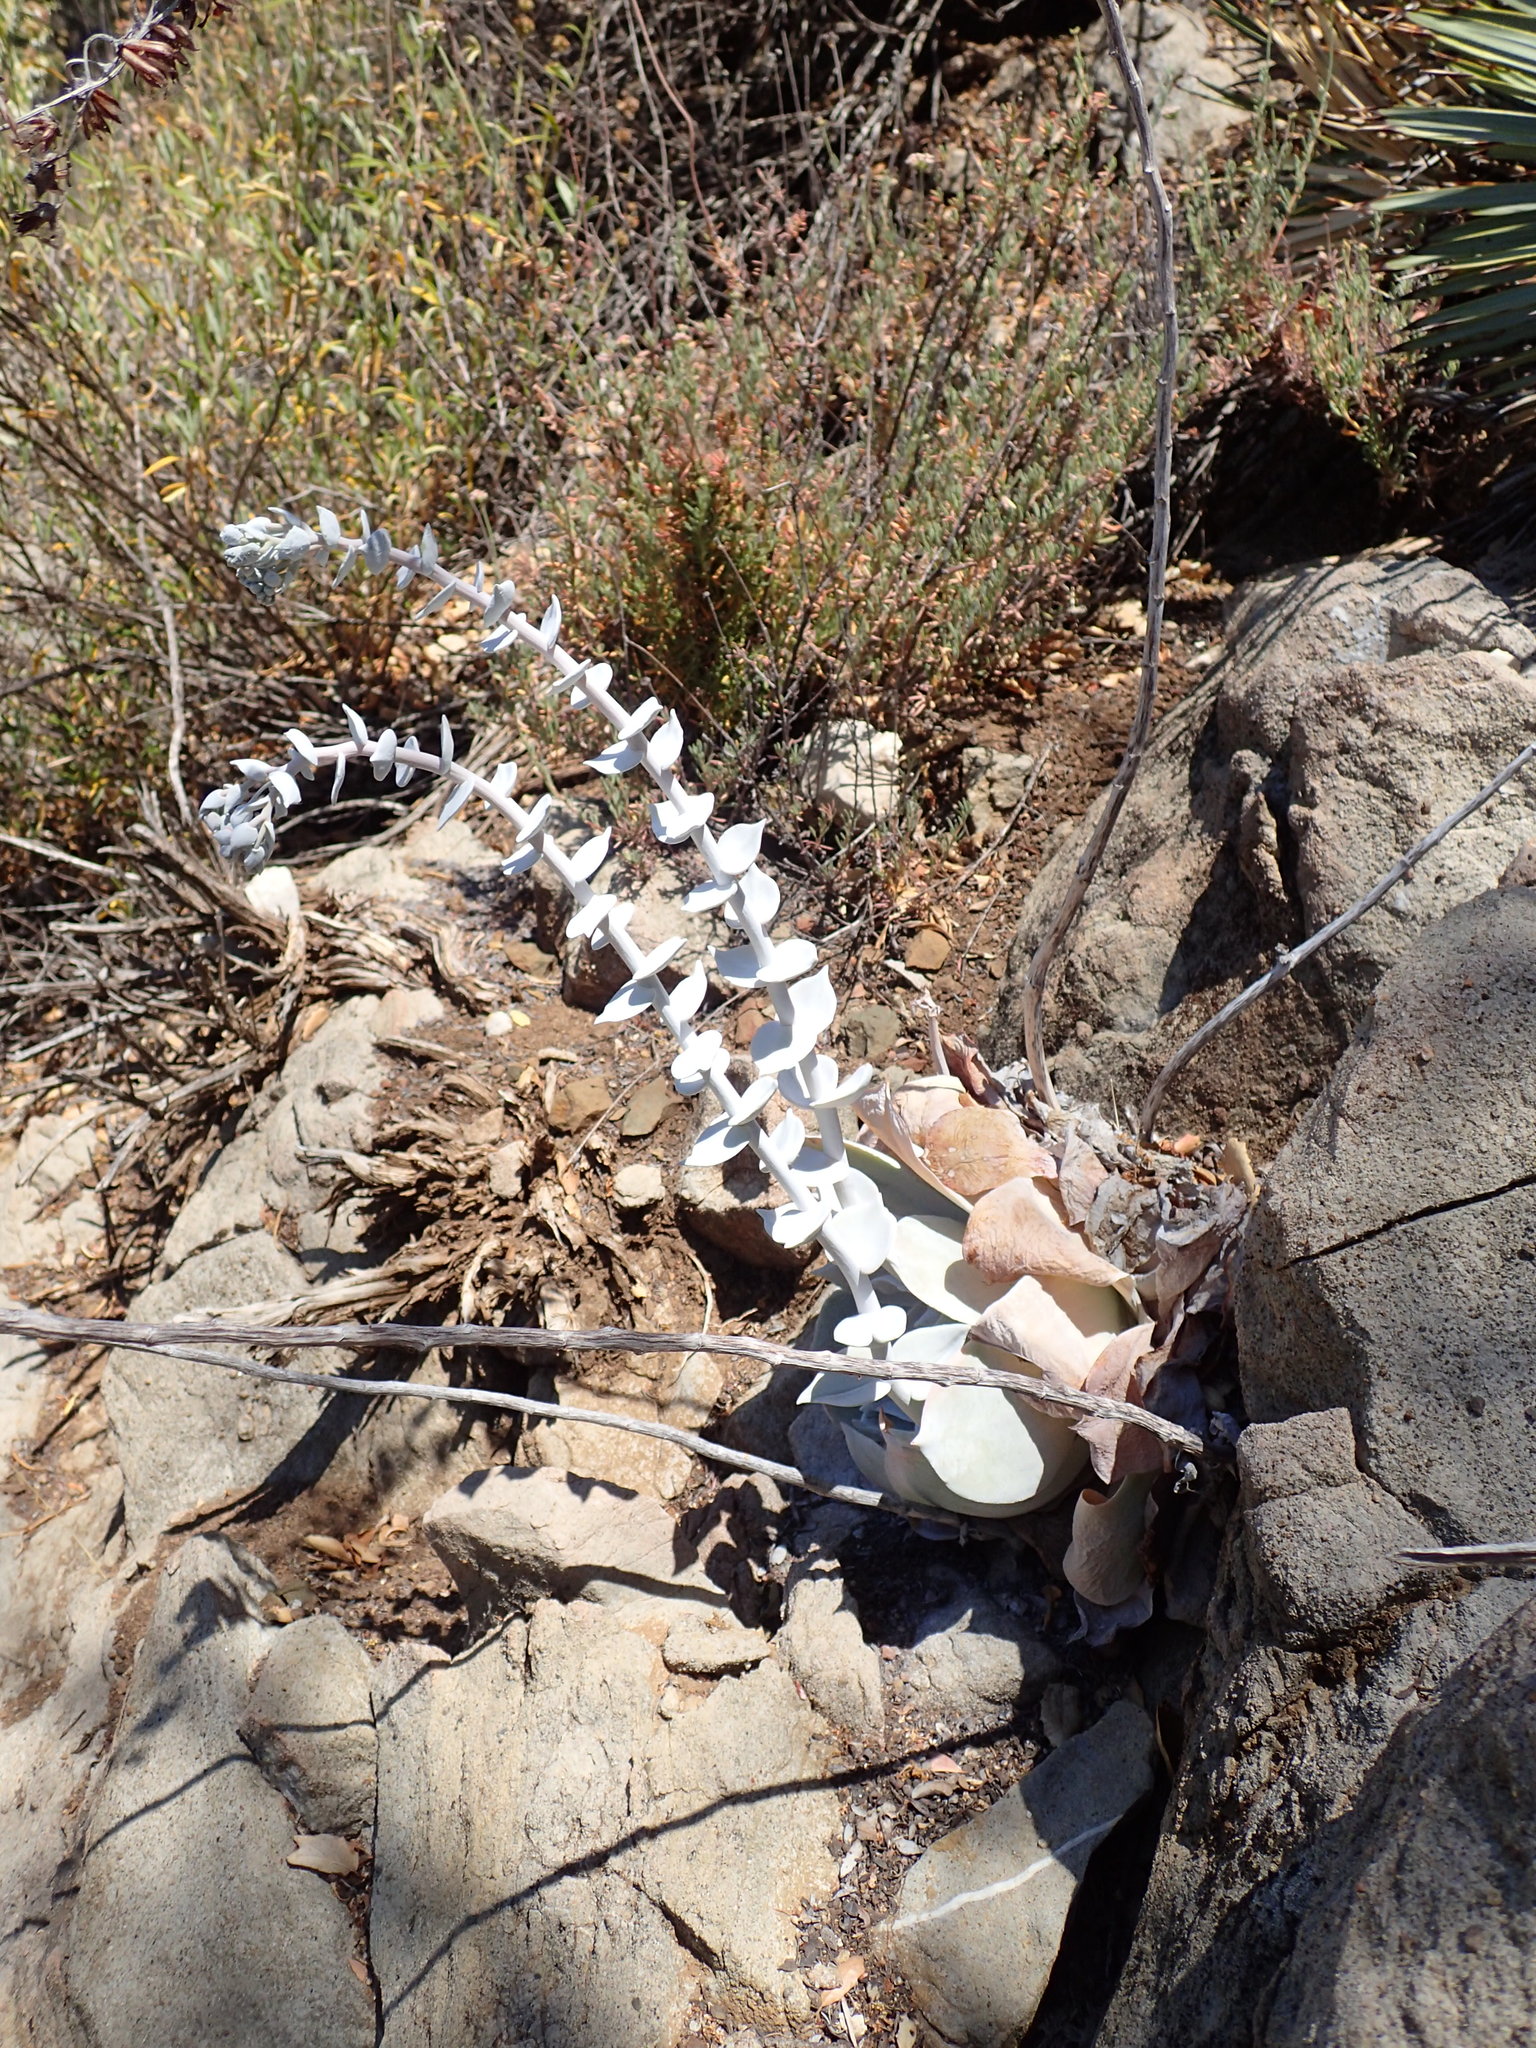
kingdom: Plantae
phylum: Tracheophyta
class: Magnoliopsida
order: Saxifragales
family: Crassulaceae
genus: Dudleya
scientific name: Dudleya pulverulenta
